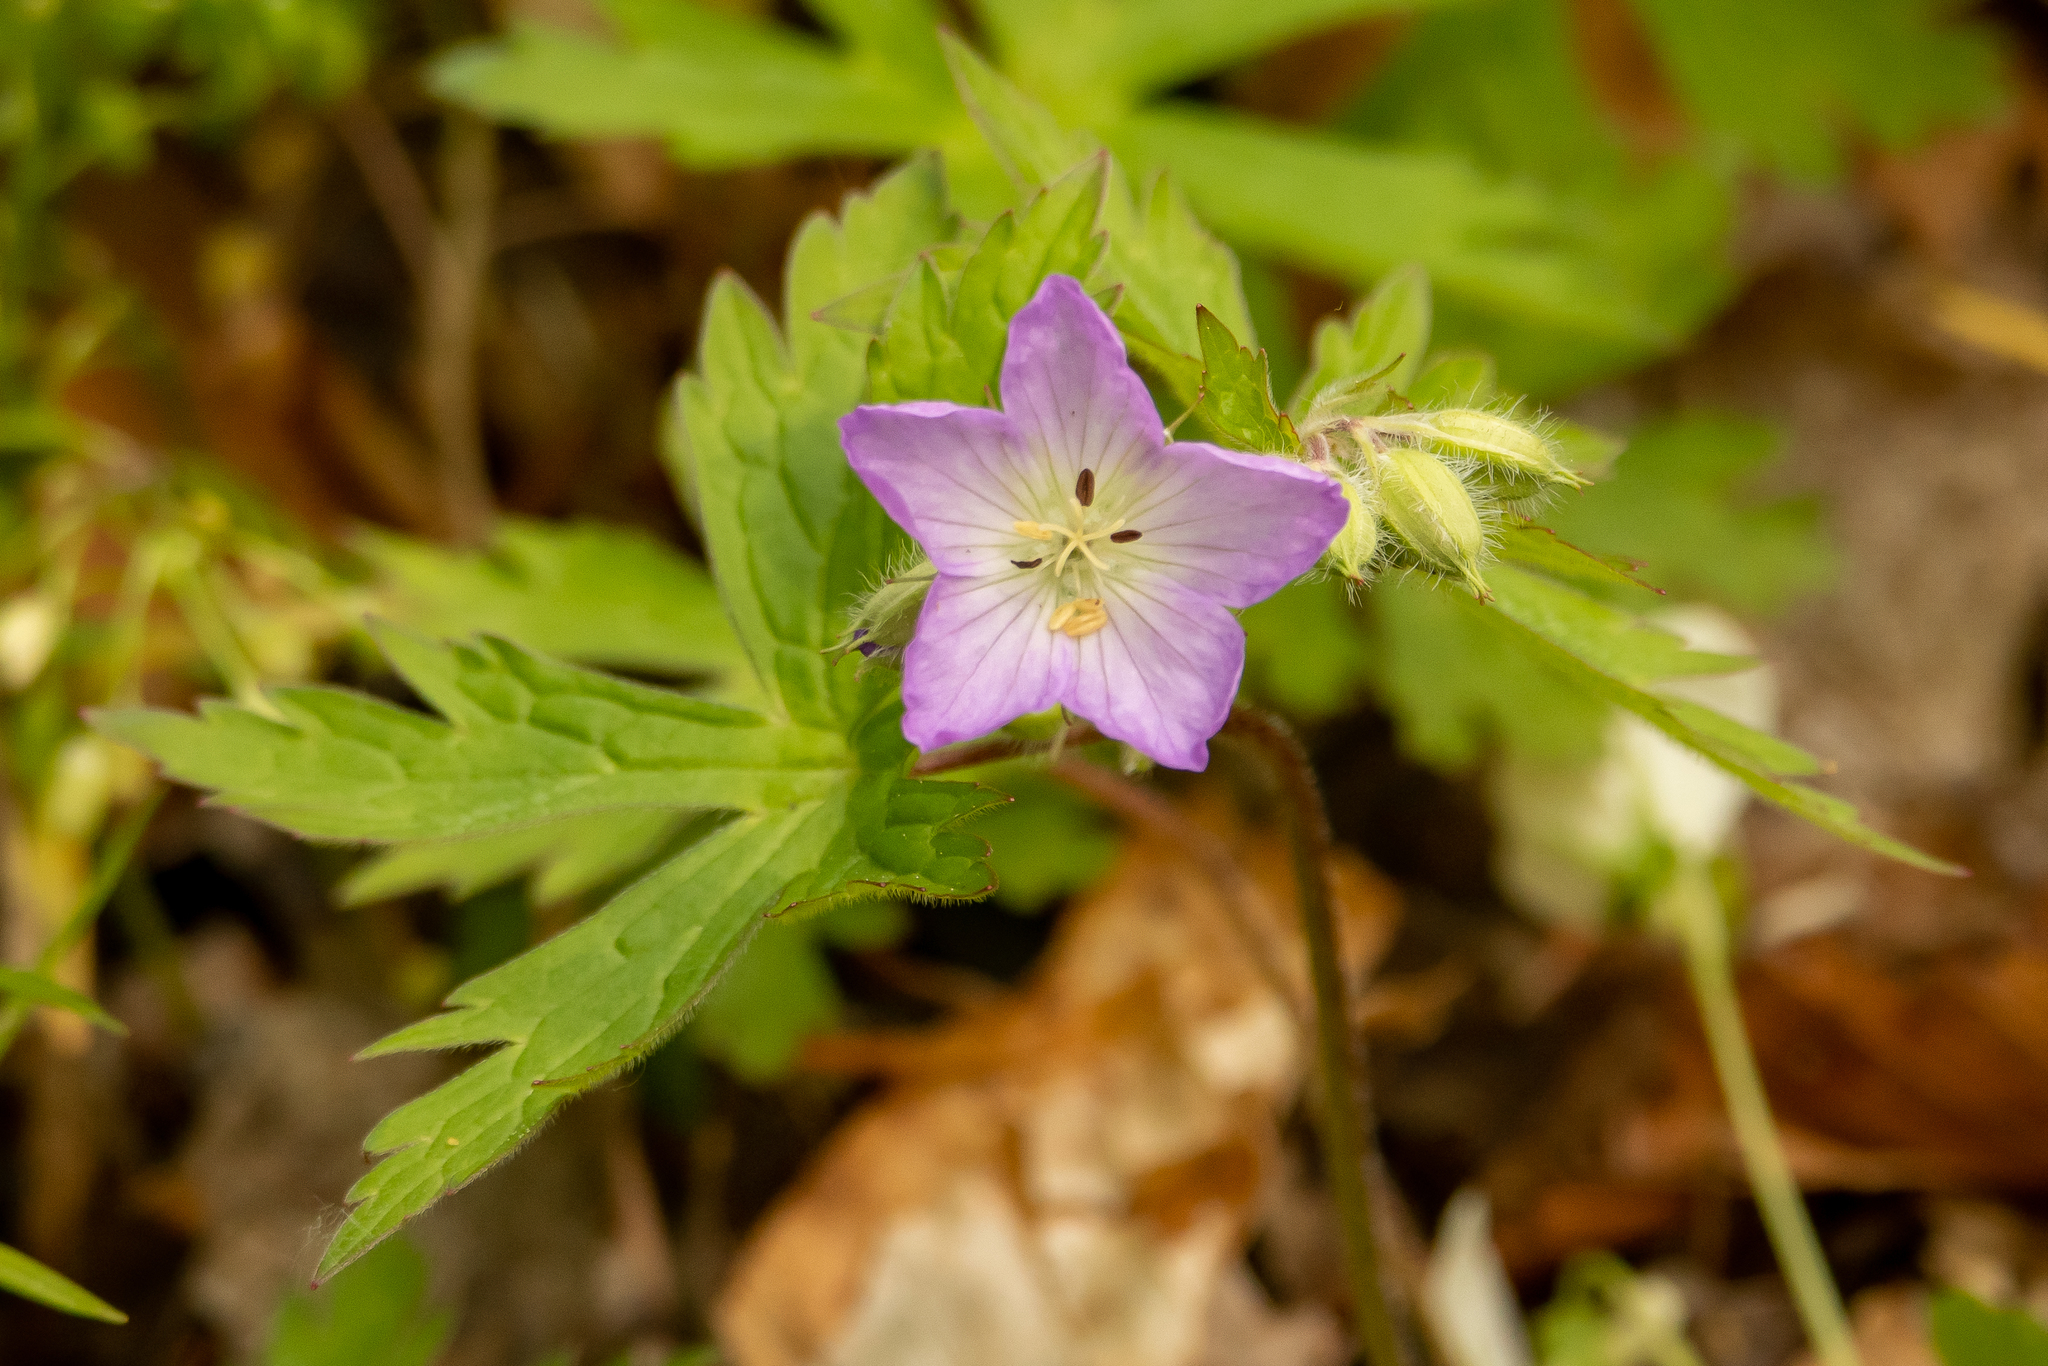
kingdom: Plantae
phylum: Tracheophyta
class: Magnoliopsida
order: Geraniales
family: Geraniaceae
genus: Geranium
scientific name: Geranium maculatum
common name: Spotted geranium
